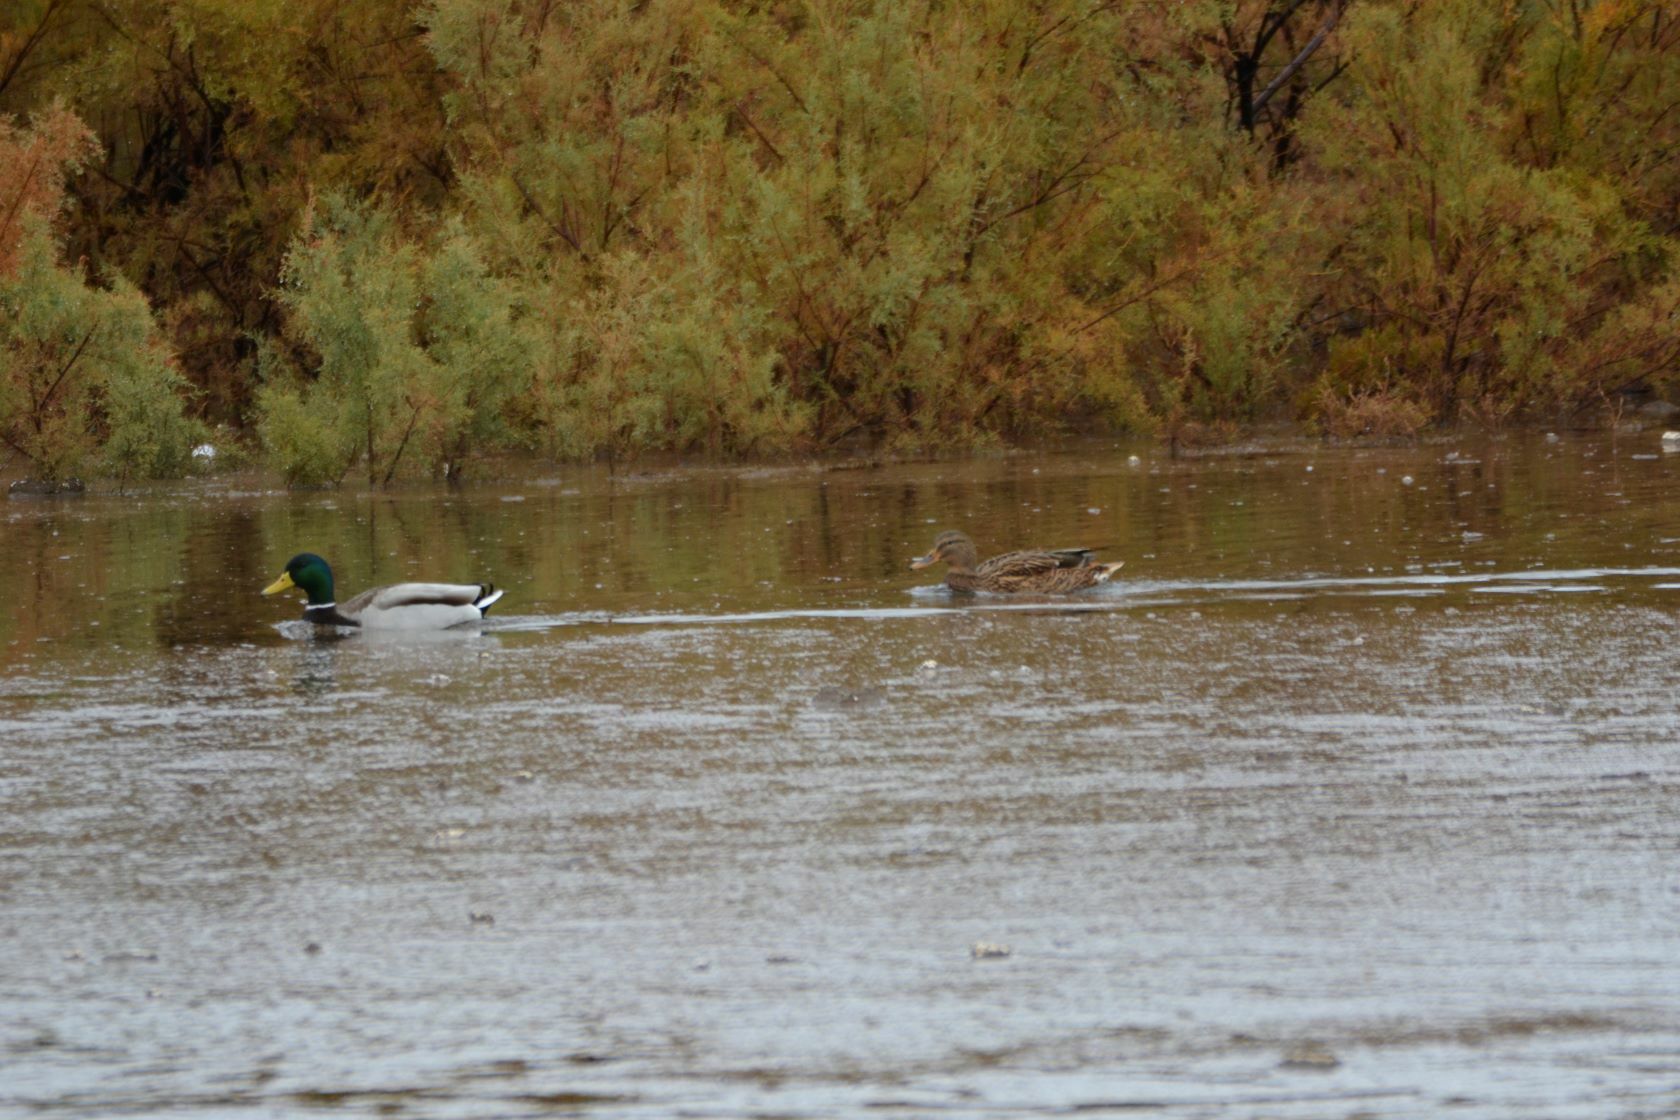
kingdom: Animalia
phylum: Chordata
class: Aves
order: Anseriformes
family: Anatidae
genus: Anas
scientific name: Anas platyrhynchos
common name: Mallard
